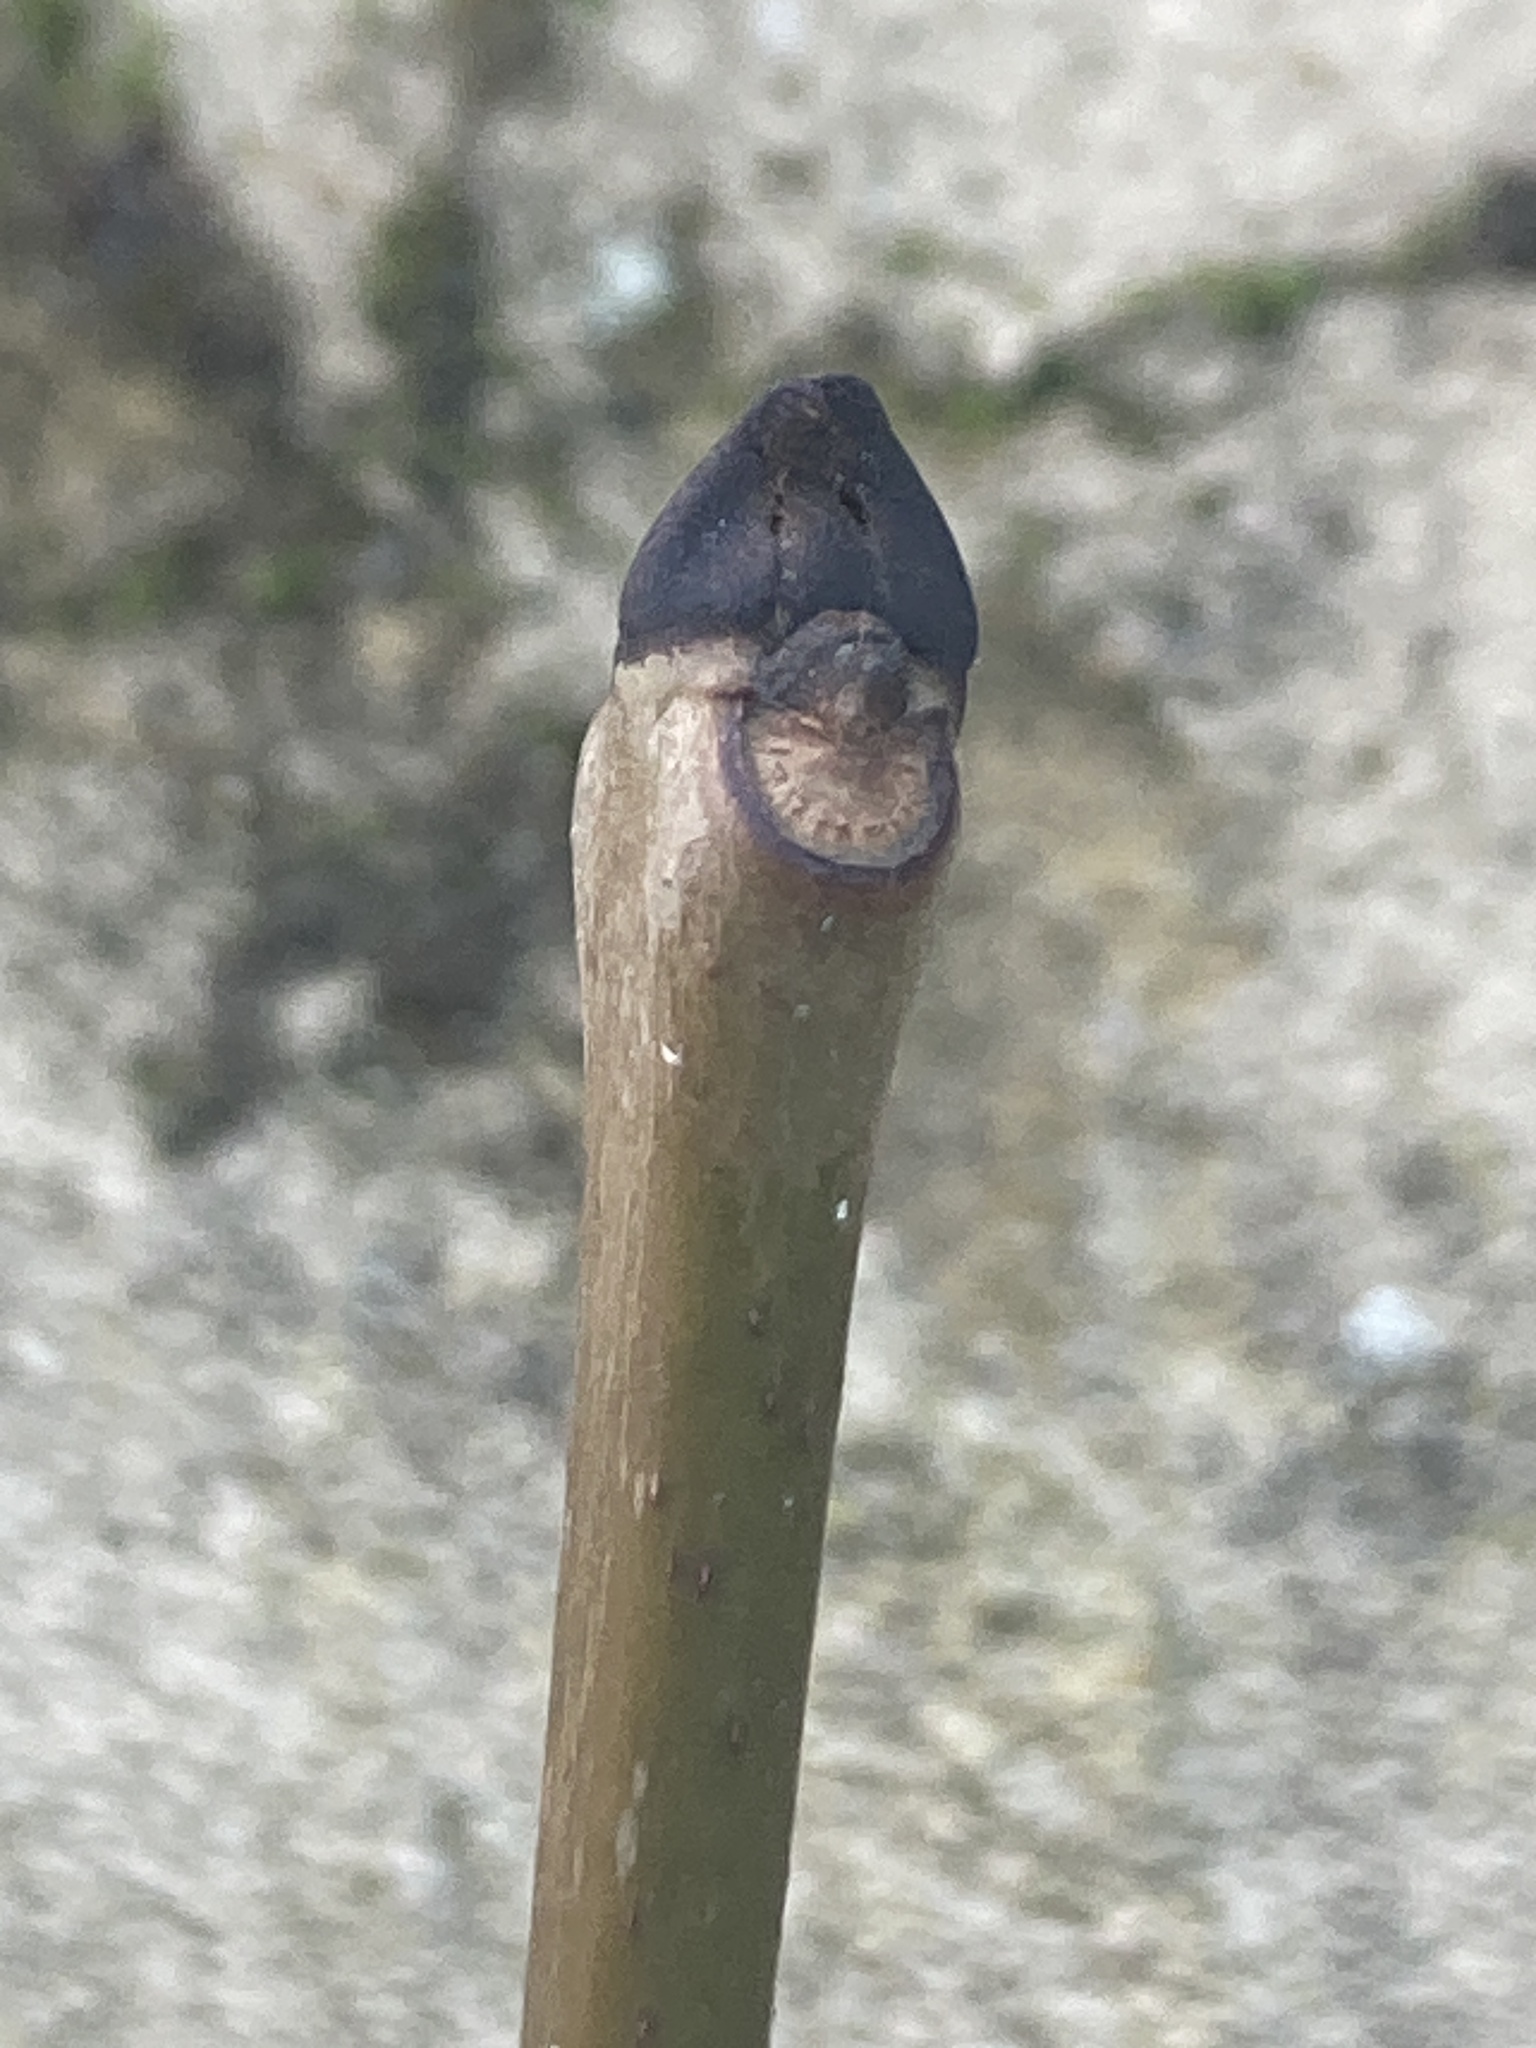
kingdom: Plantae
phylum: Tracheophyta
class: Magnoliopsida
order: Lamiales
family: Oleaceae
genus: Fraxinus
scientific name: Fraxinus excelsior
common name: European ash
